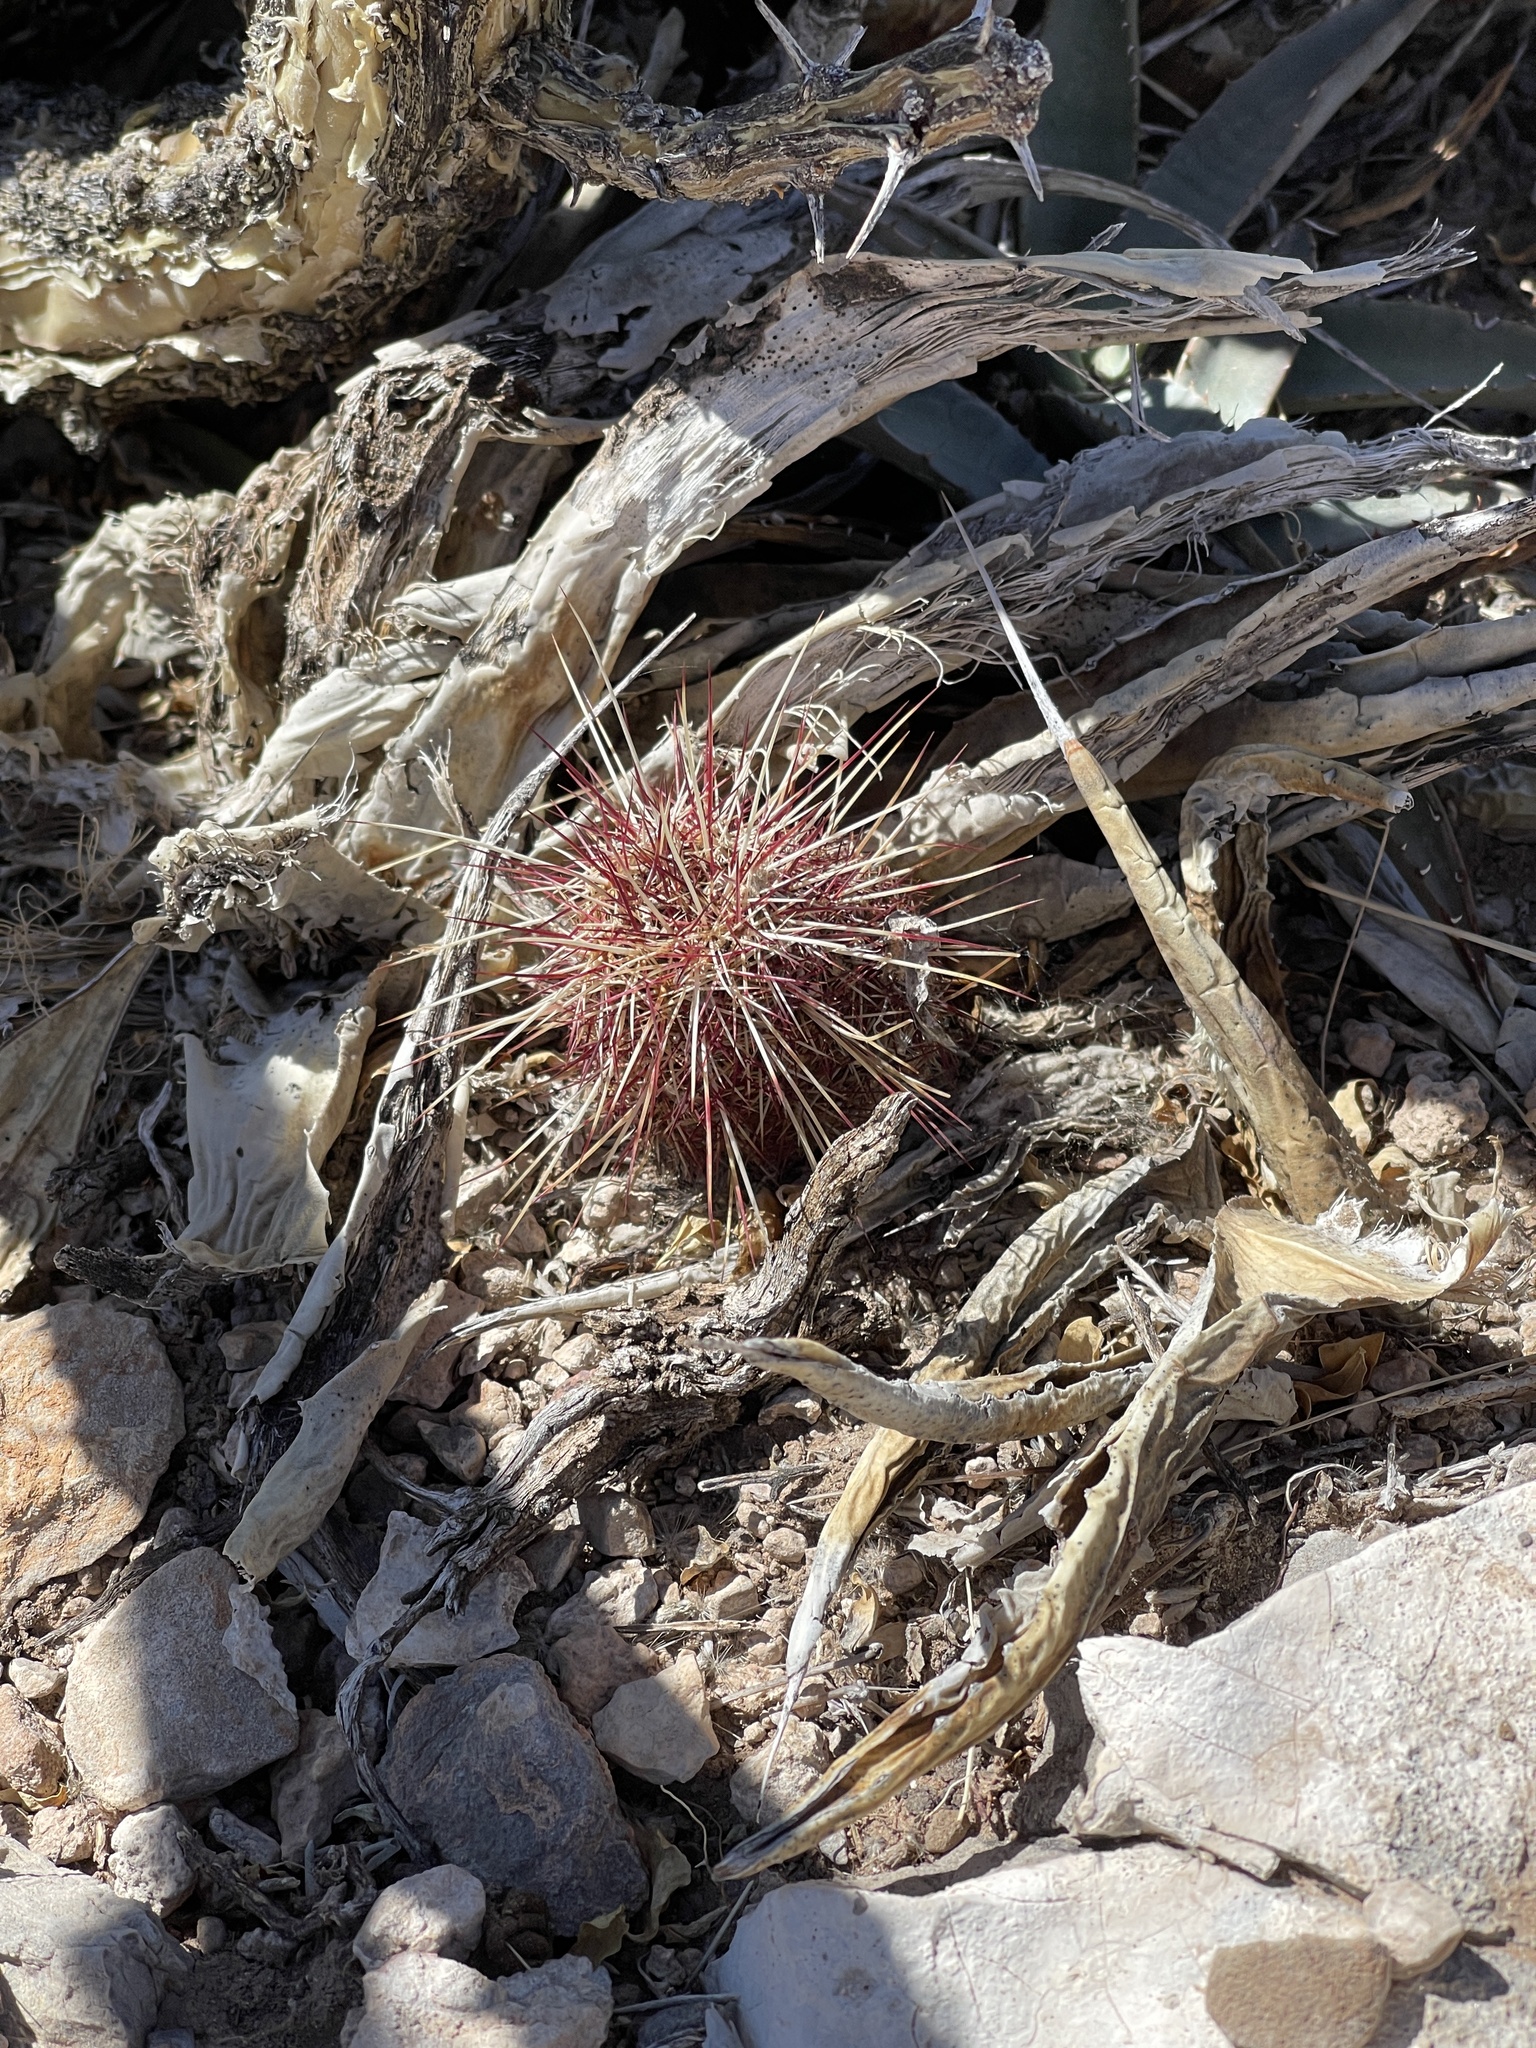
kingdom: Plantae
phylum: Tracheophyta
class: Magnoliopsida
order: Caryophyllales
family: Cactaceae
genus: Echinocereus
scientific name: Echinocereus viridiflorus
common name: Nylon hedgehog cactus
